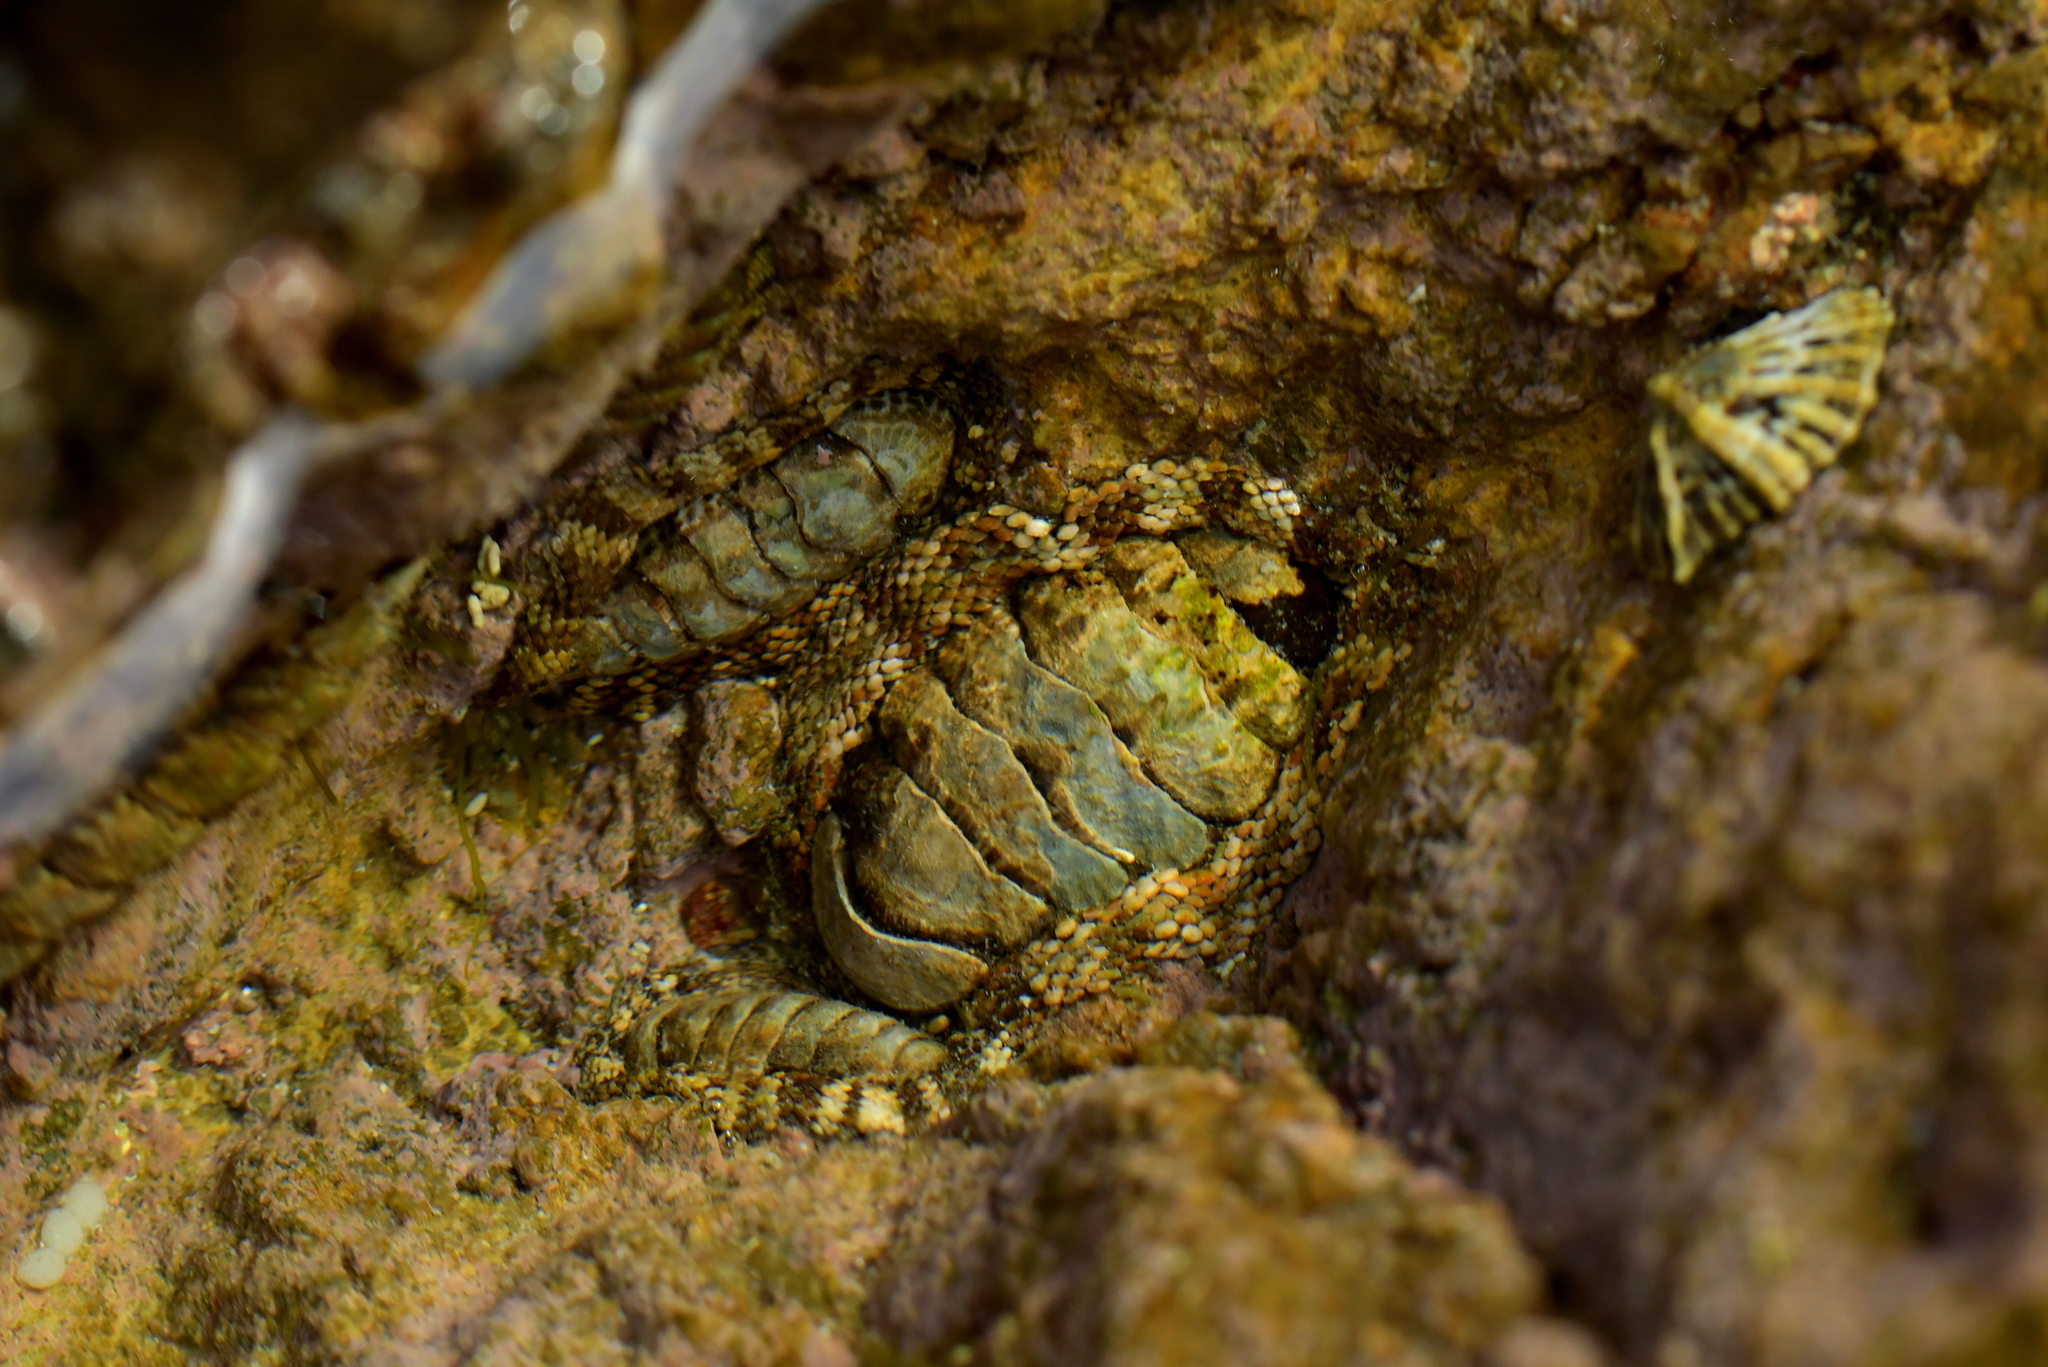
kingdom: Animalia
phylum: Mollusca
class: Polyplacophora
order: Chitonida
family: Chitonidae
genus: Sypharochiton
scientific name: Sypharochiton pelliserpentis
